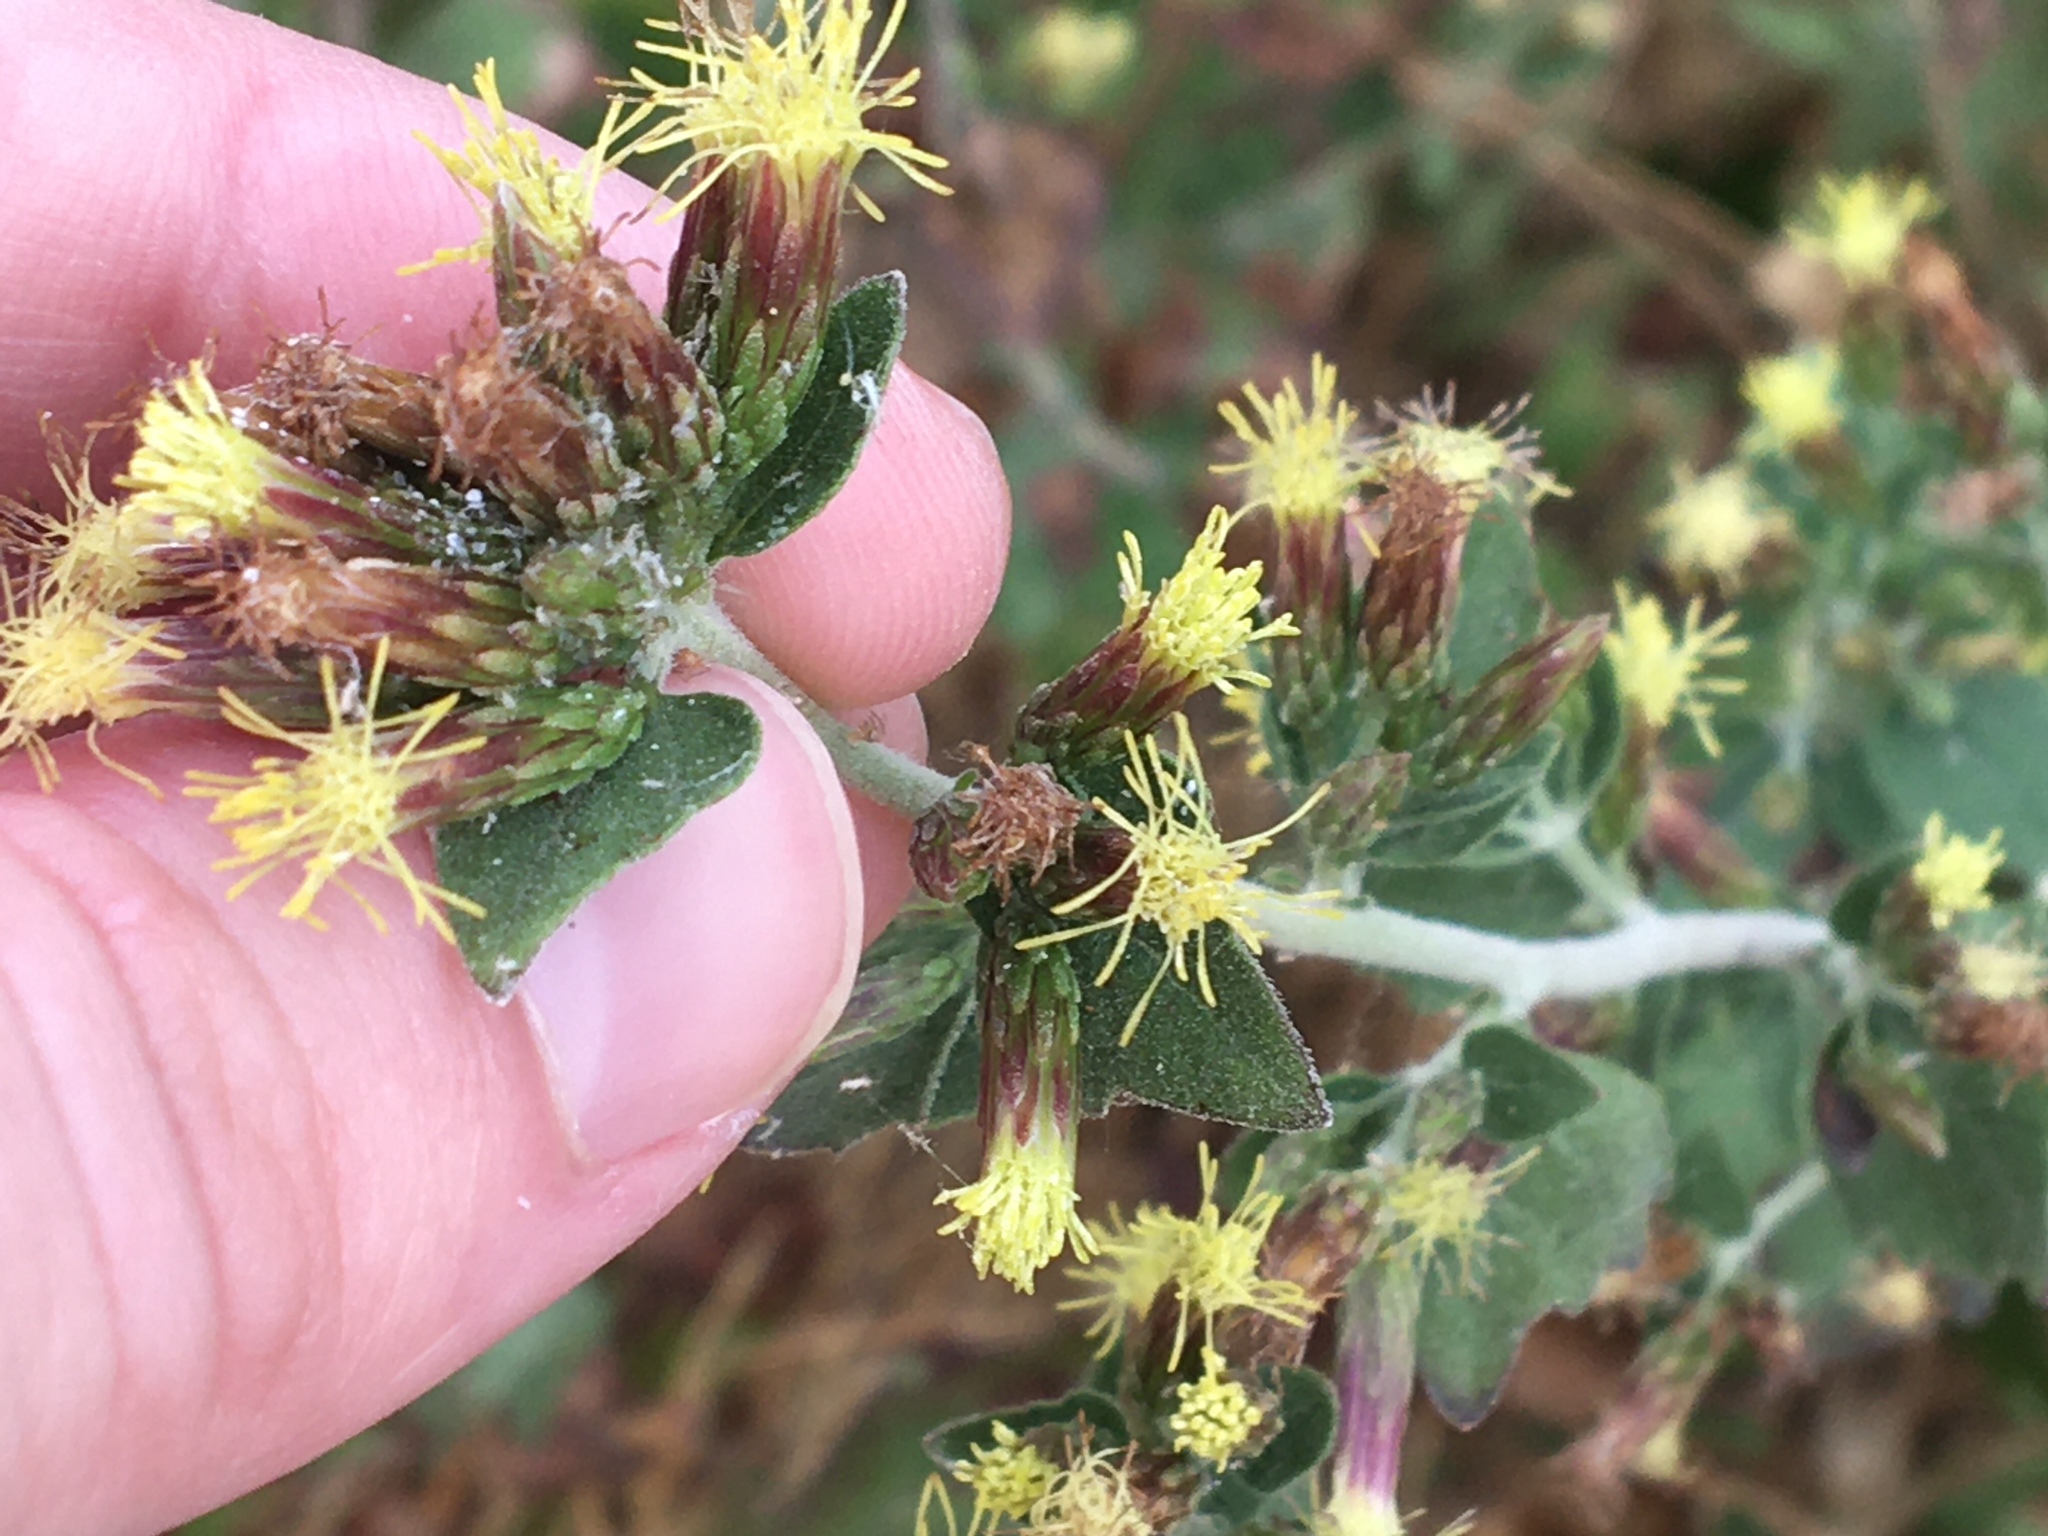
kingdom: Plantae
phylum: Tracheophyta
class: Magnoliopsida
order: Asterales
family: Asteraceae
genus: Brickellia
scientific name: Brickellia californica
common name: California brickellbush
